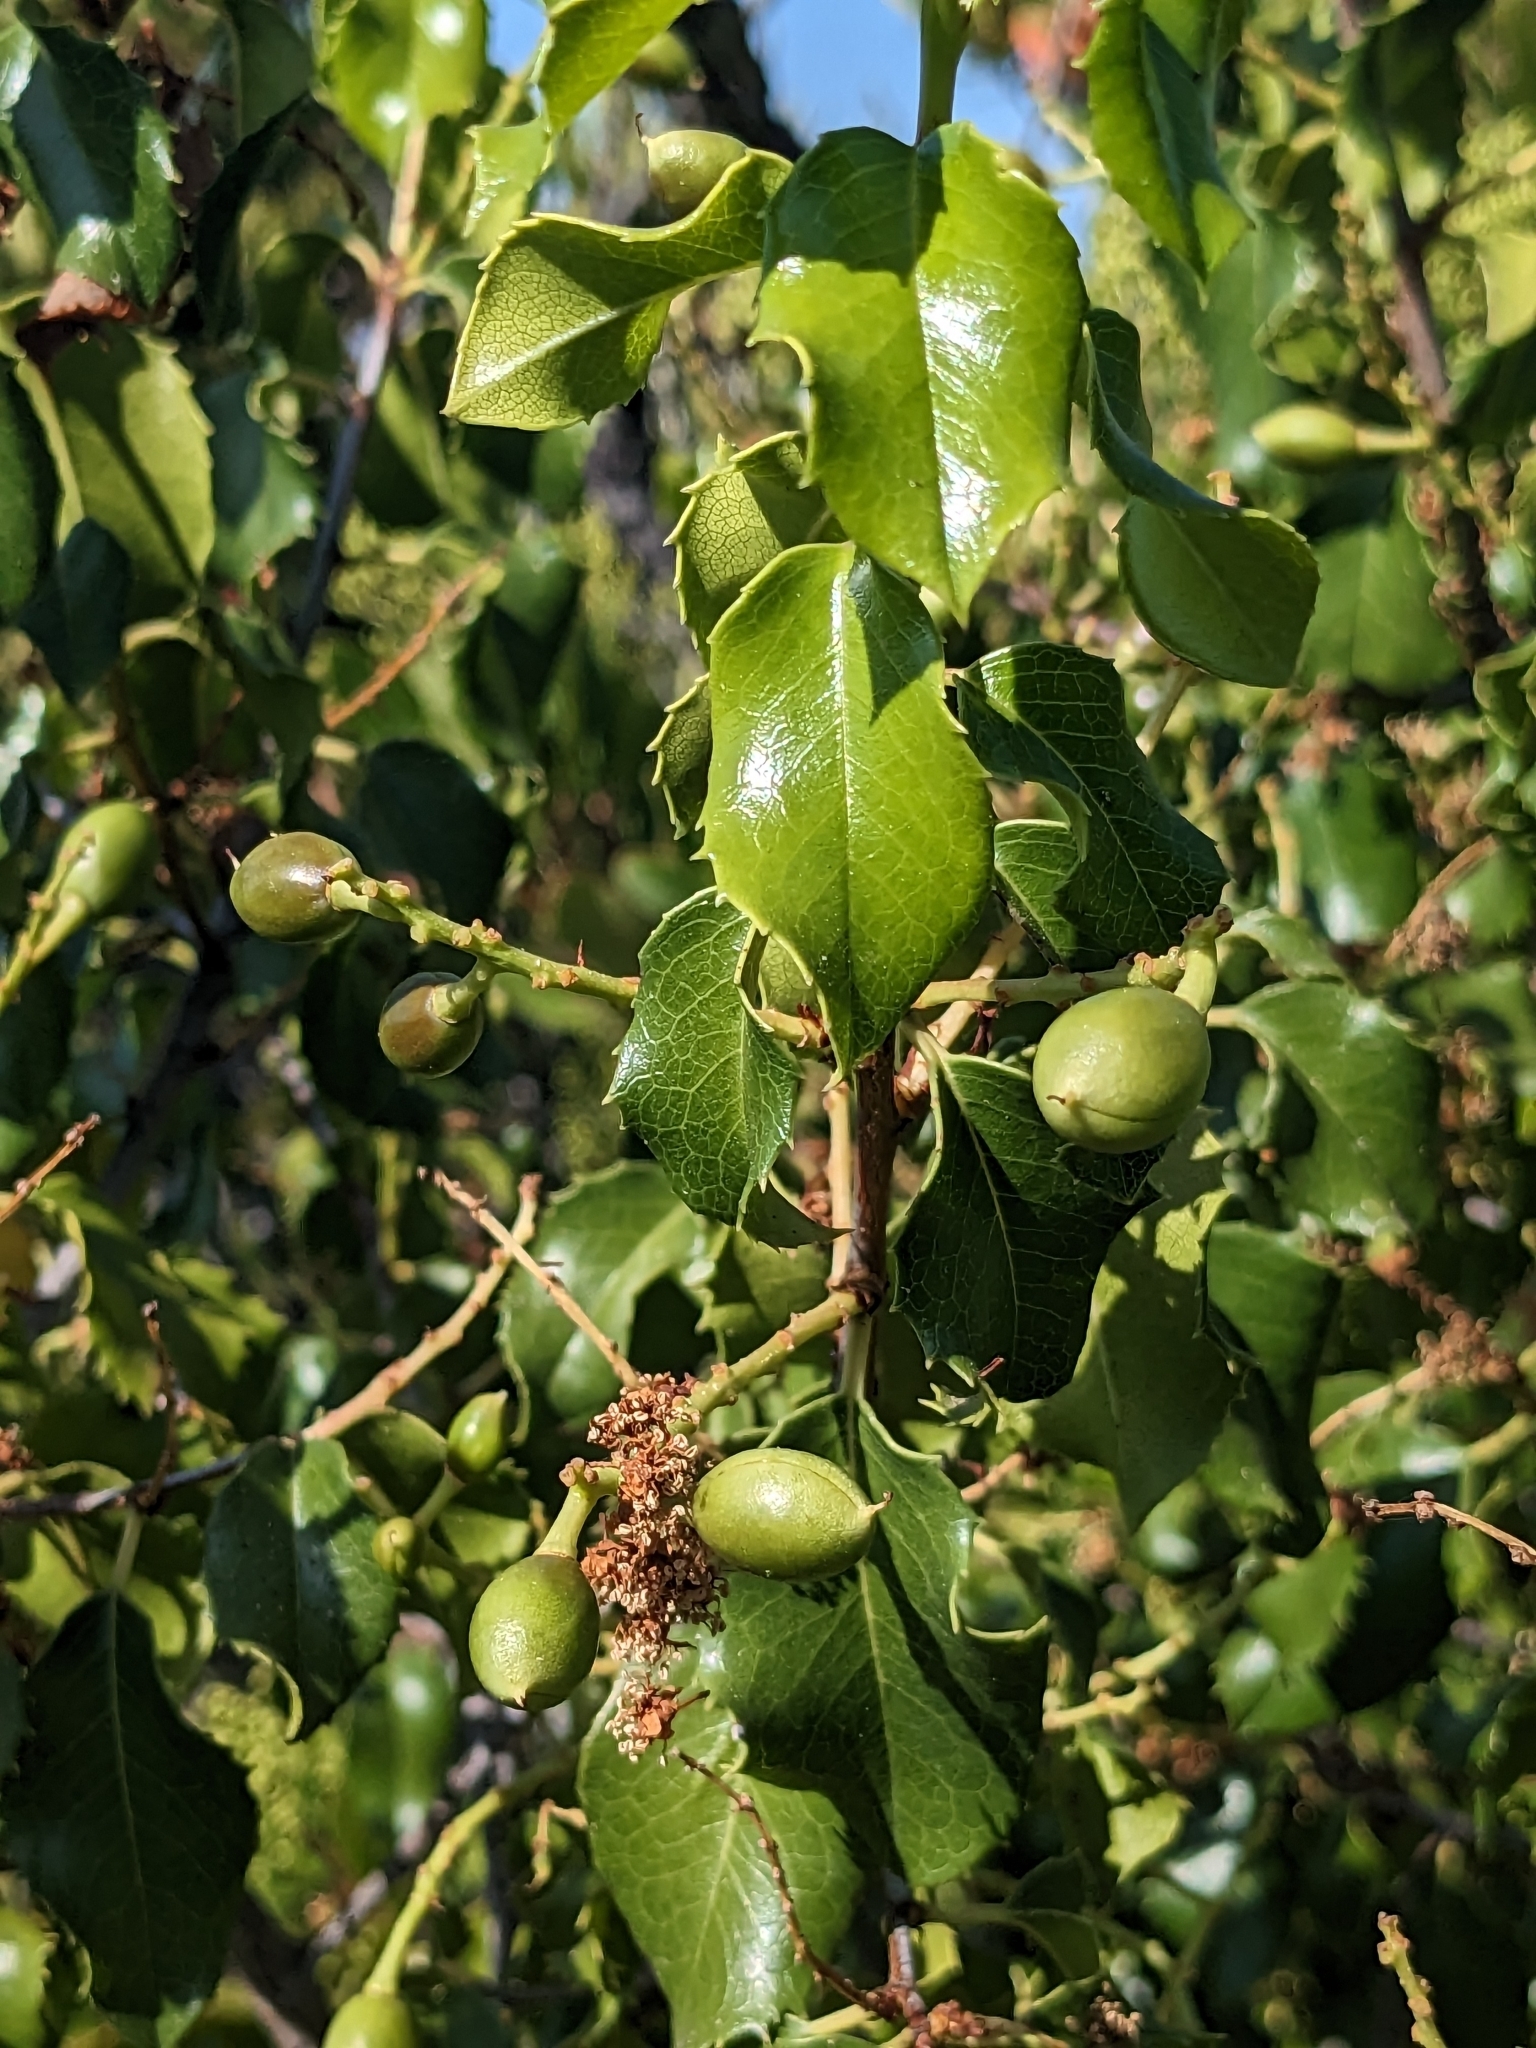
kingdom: Plantae
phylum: Tracheophyta
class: Magnoliopsida
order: Rosales
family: Rosaceae
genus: Prunus
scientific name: Prunus ilicifolia
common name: Hollyleaf cherry
